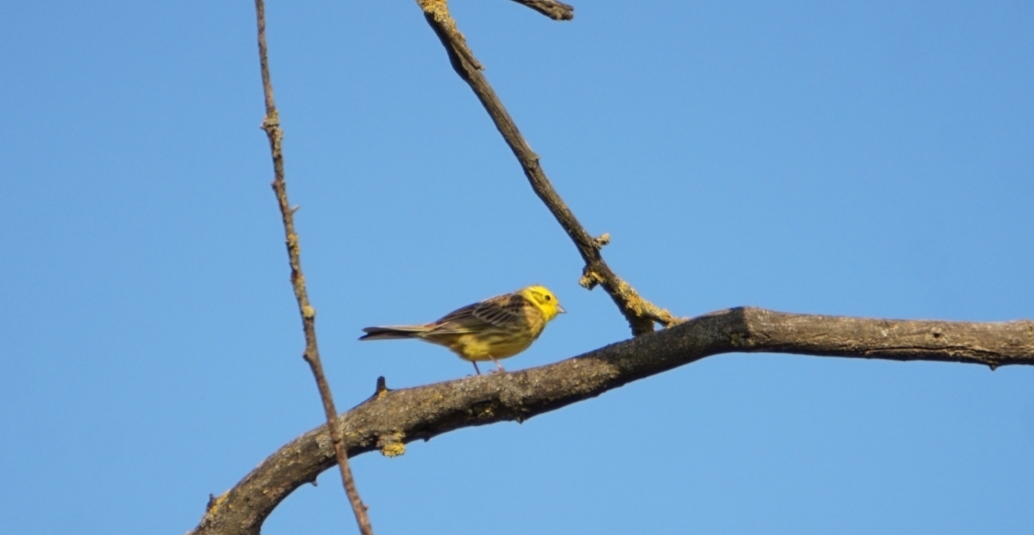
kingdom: Animalia
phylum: Chordata
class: Aves
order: Passeriformes
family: Emberizidae
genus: Emberiza
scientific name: Emberiza citrinella
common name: Yellowhammer
